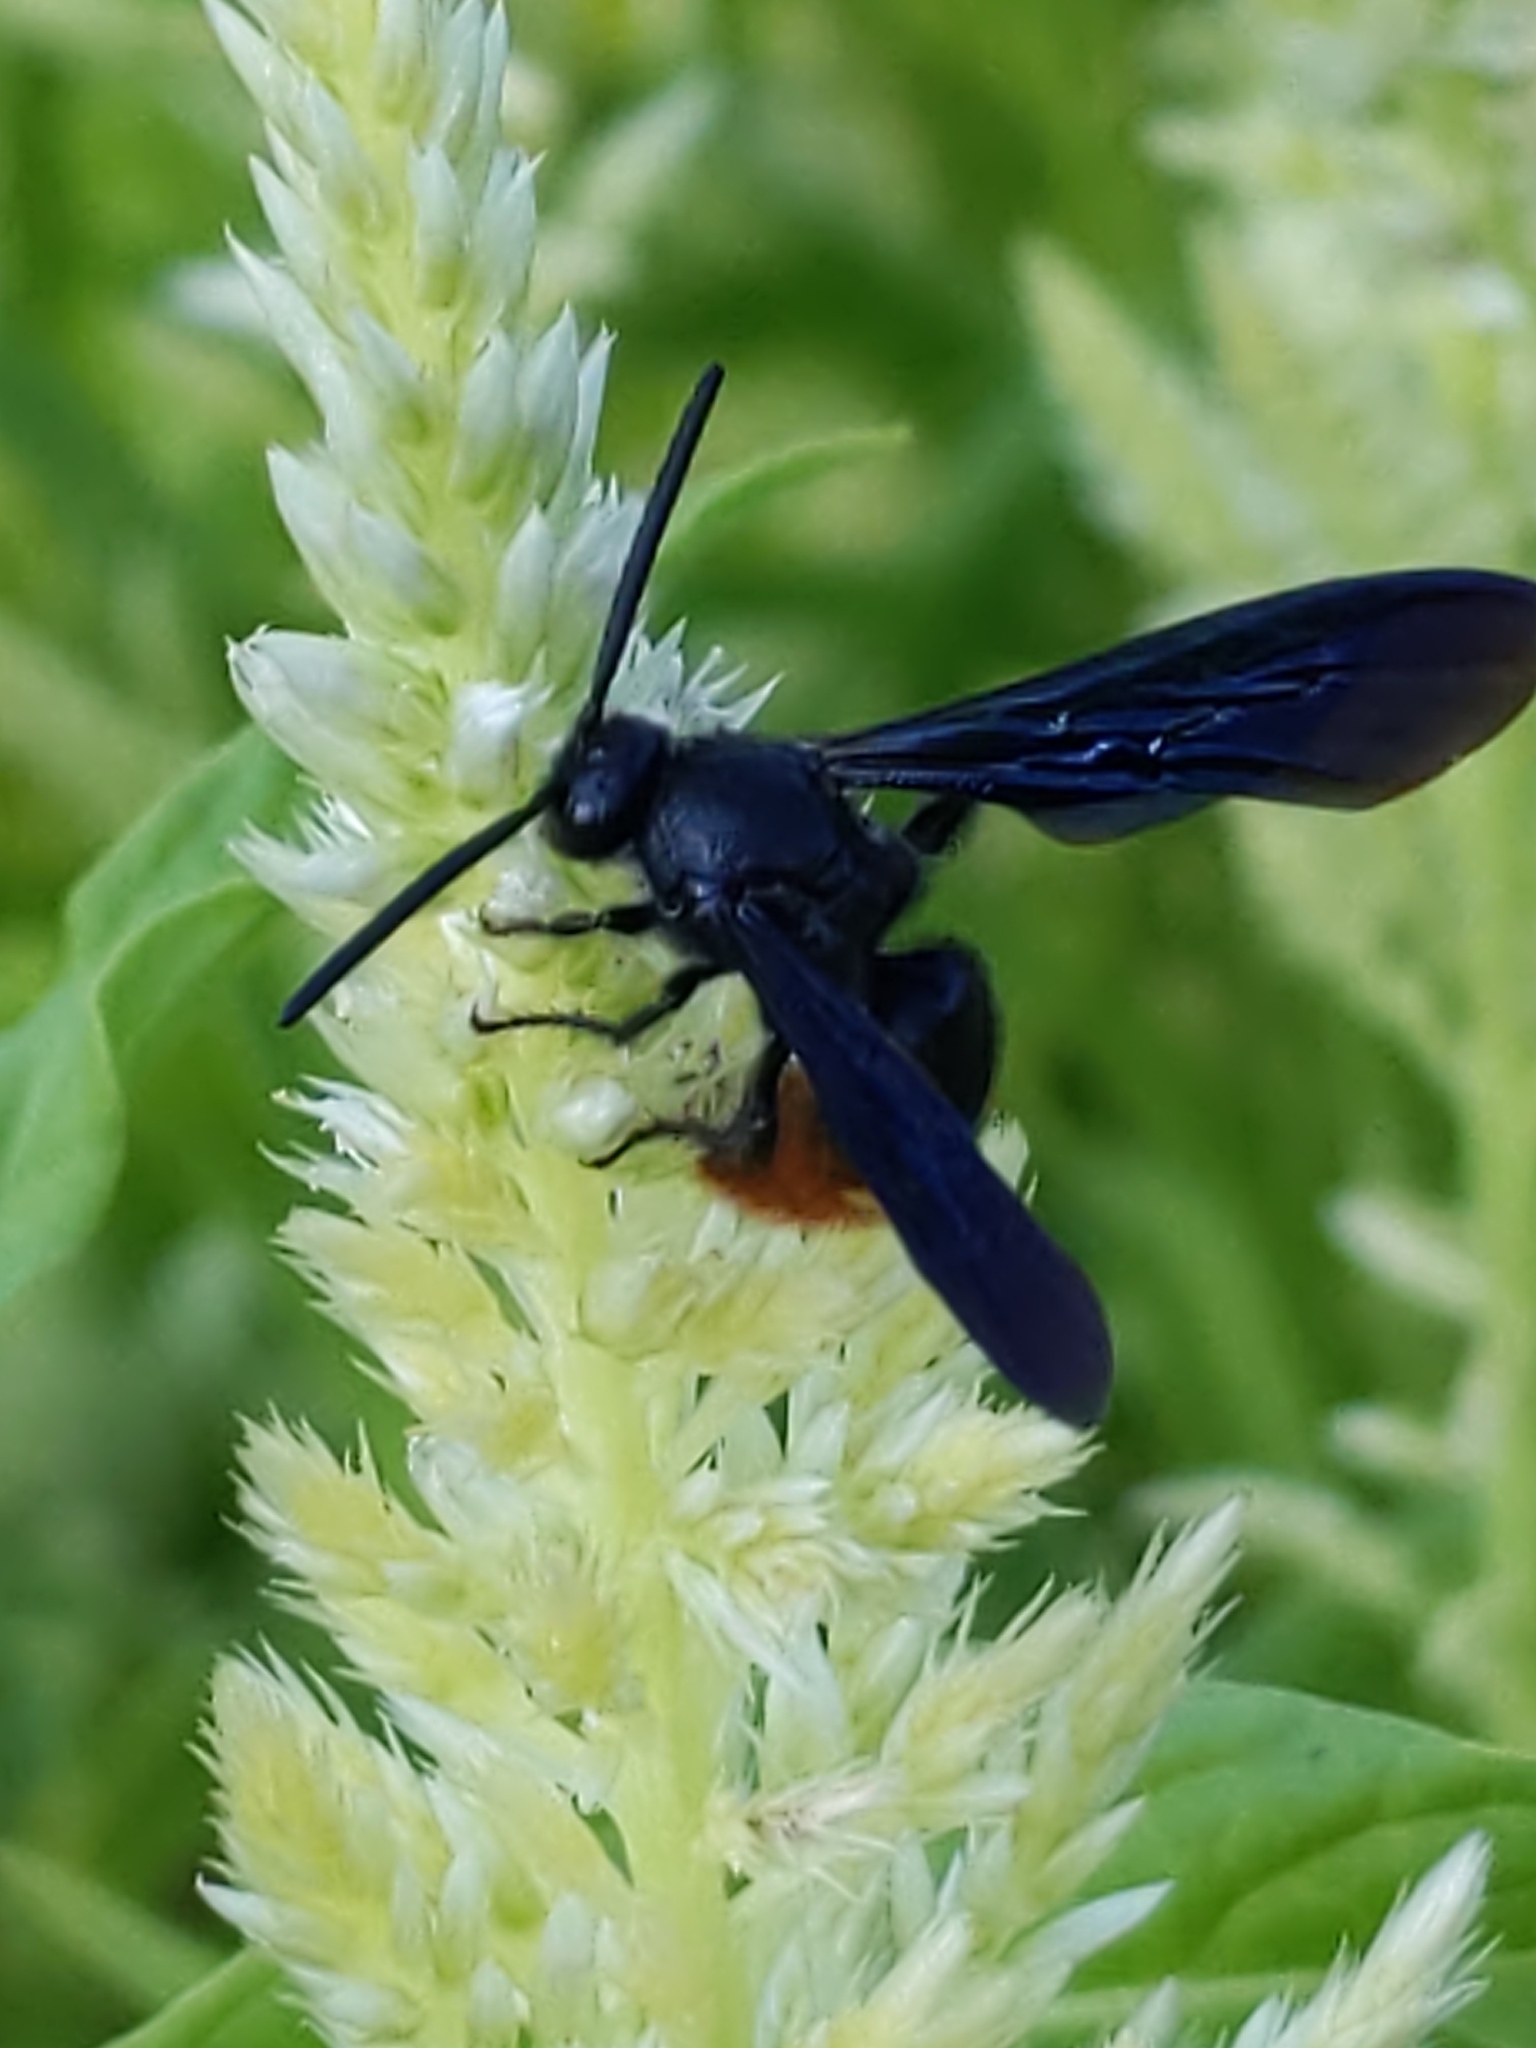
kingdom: Animalia
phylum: Arthropoda
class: Insecta
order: Hymenoptera
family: Scoliidae
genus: Scolia
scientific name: Scolia dubia
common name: Blue-winged scoliid wasp
